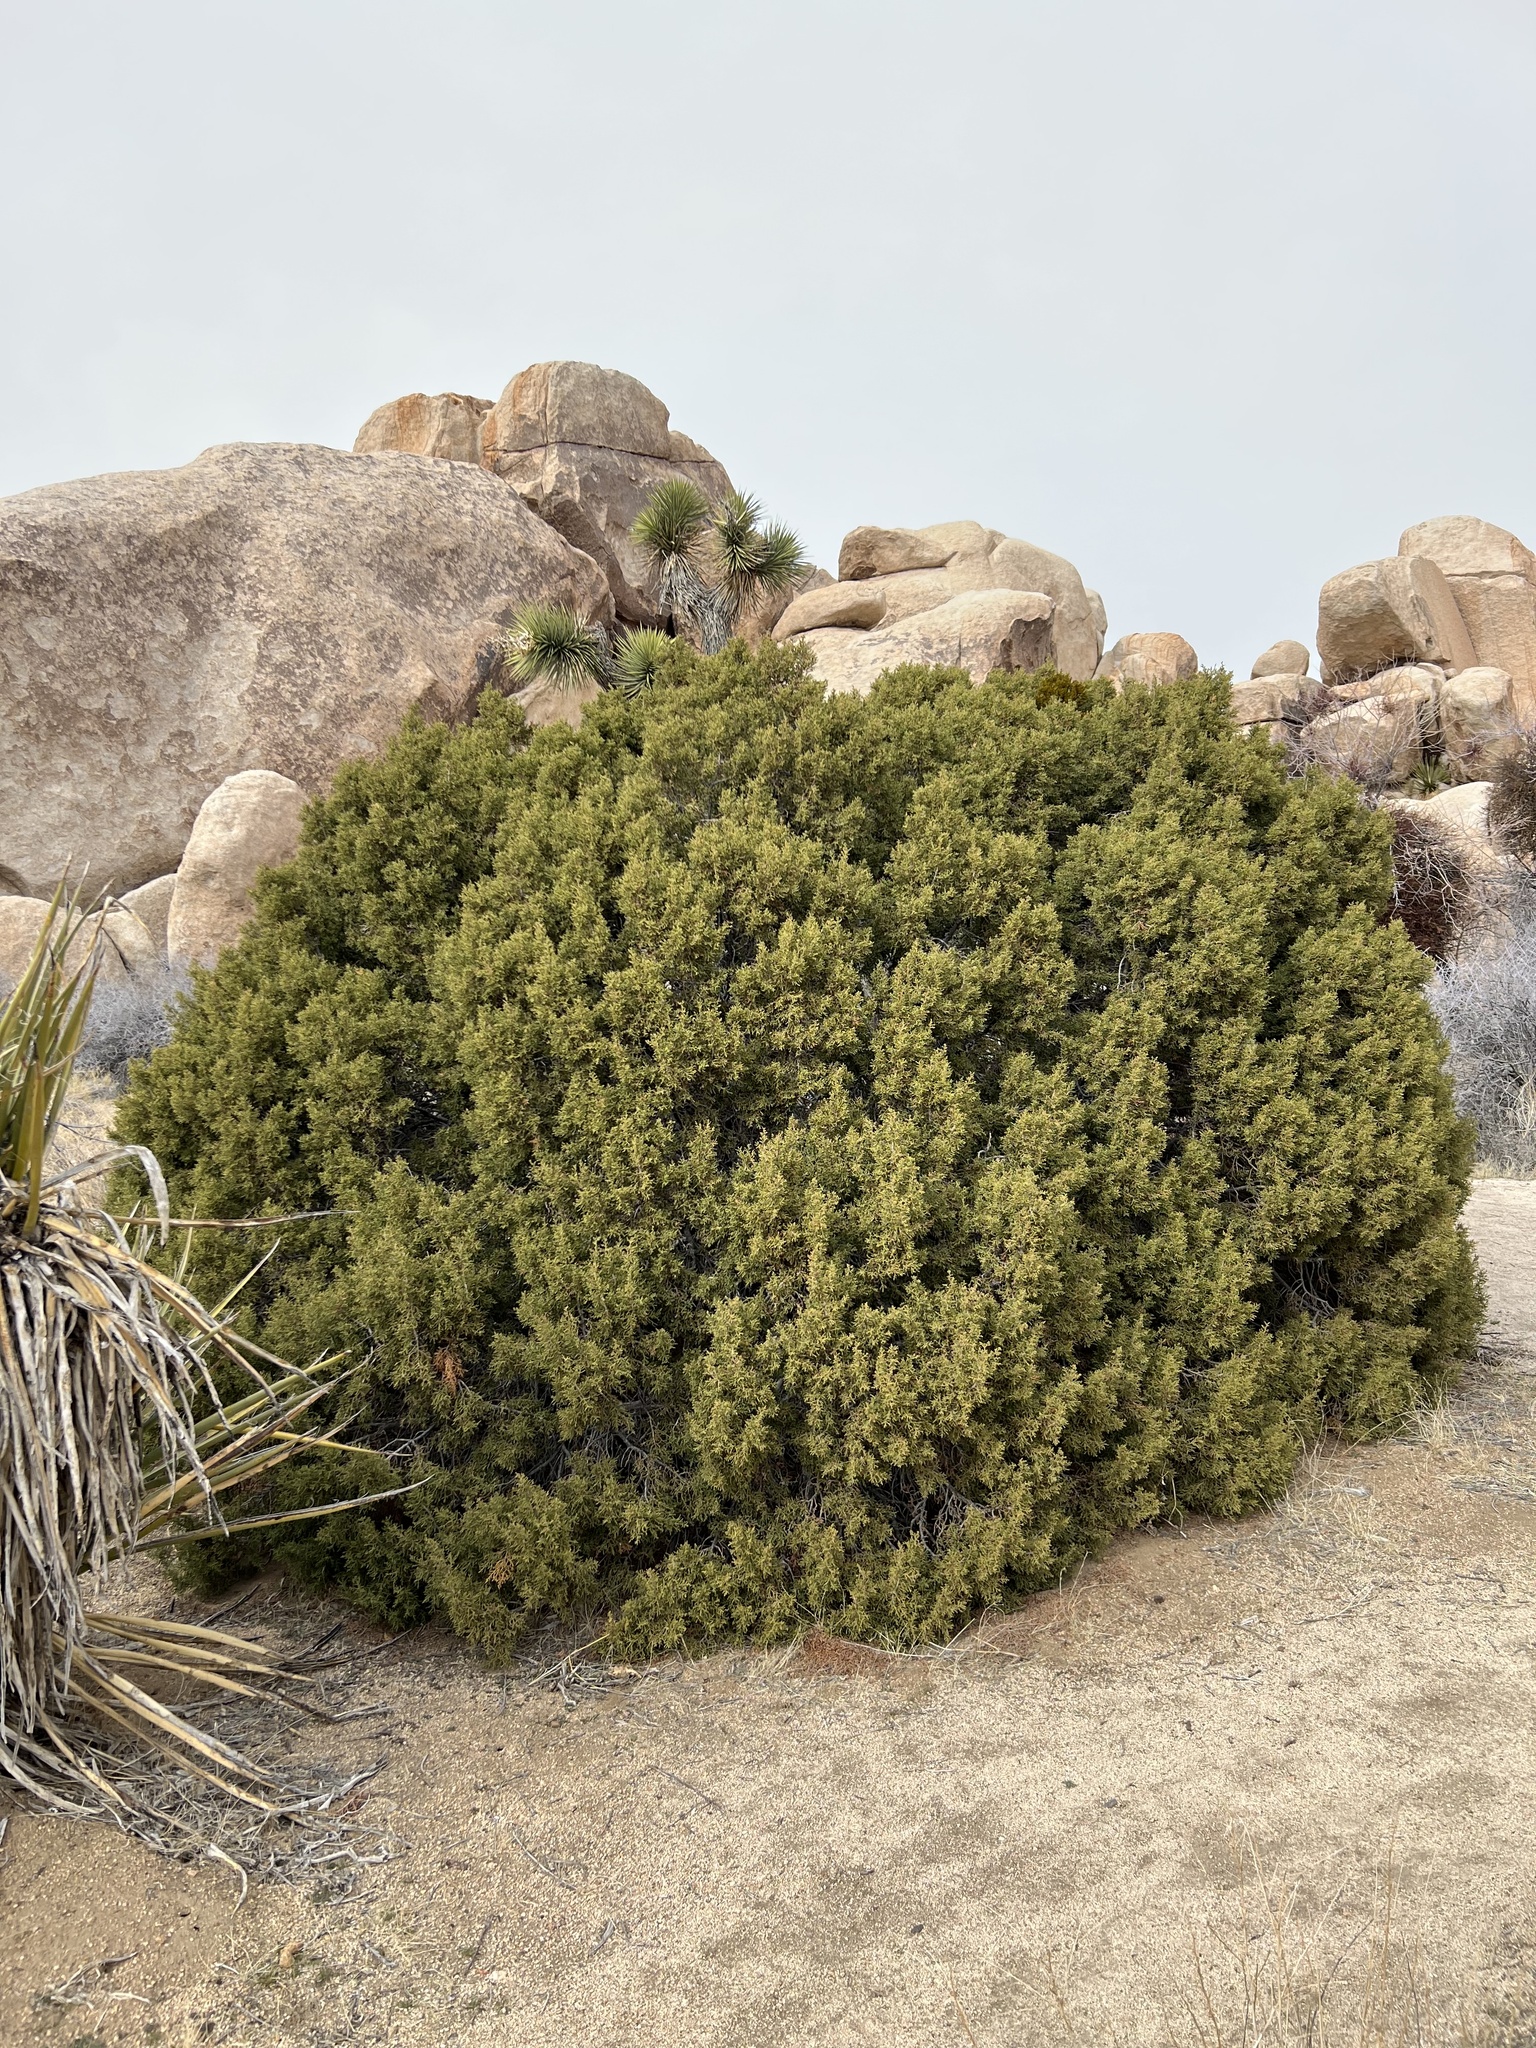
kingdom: Plantae
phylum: Tracheophyta
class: Pinopsida
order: Pinales
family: Cupressaceae
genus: Juniperus
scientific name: Juniperus californica
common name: California juniper
